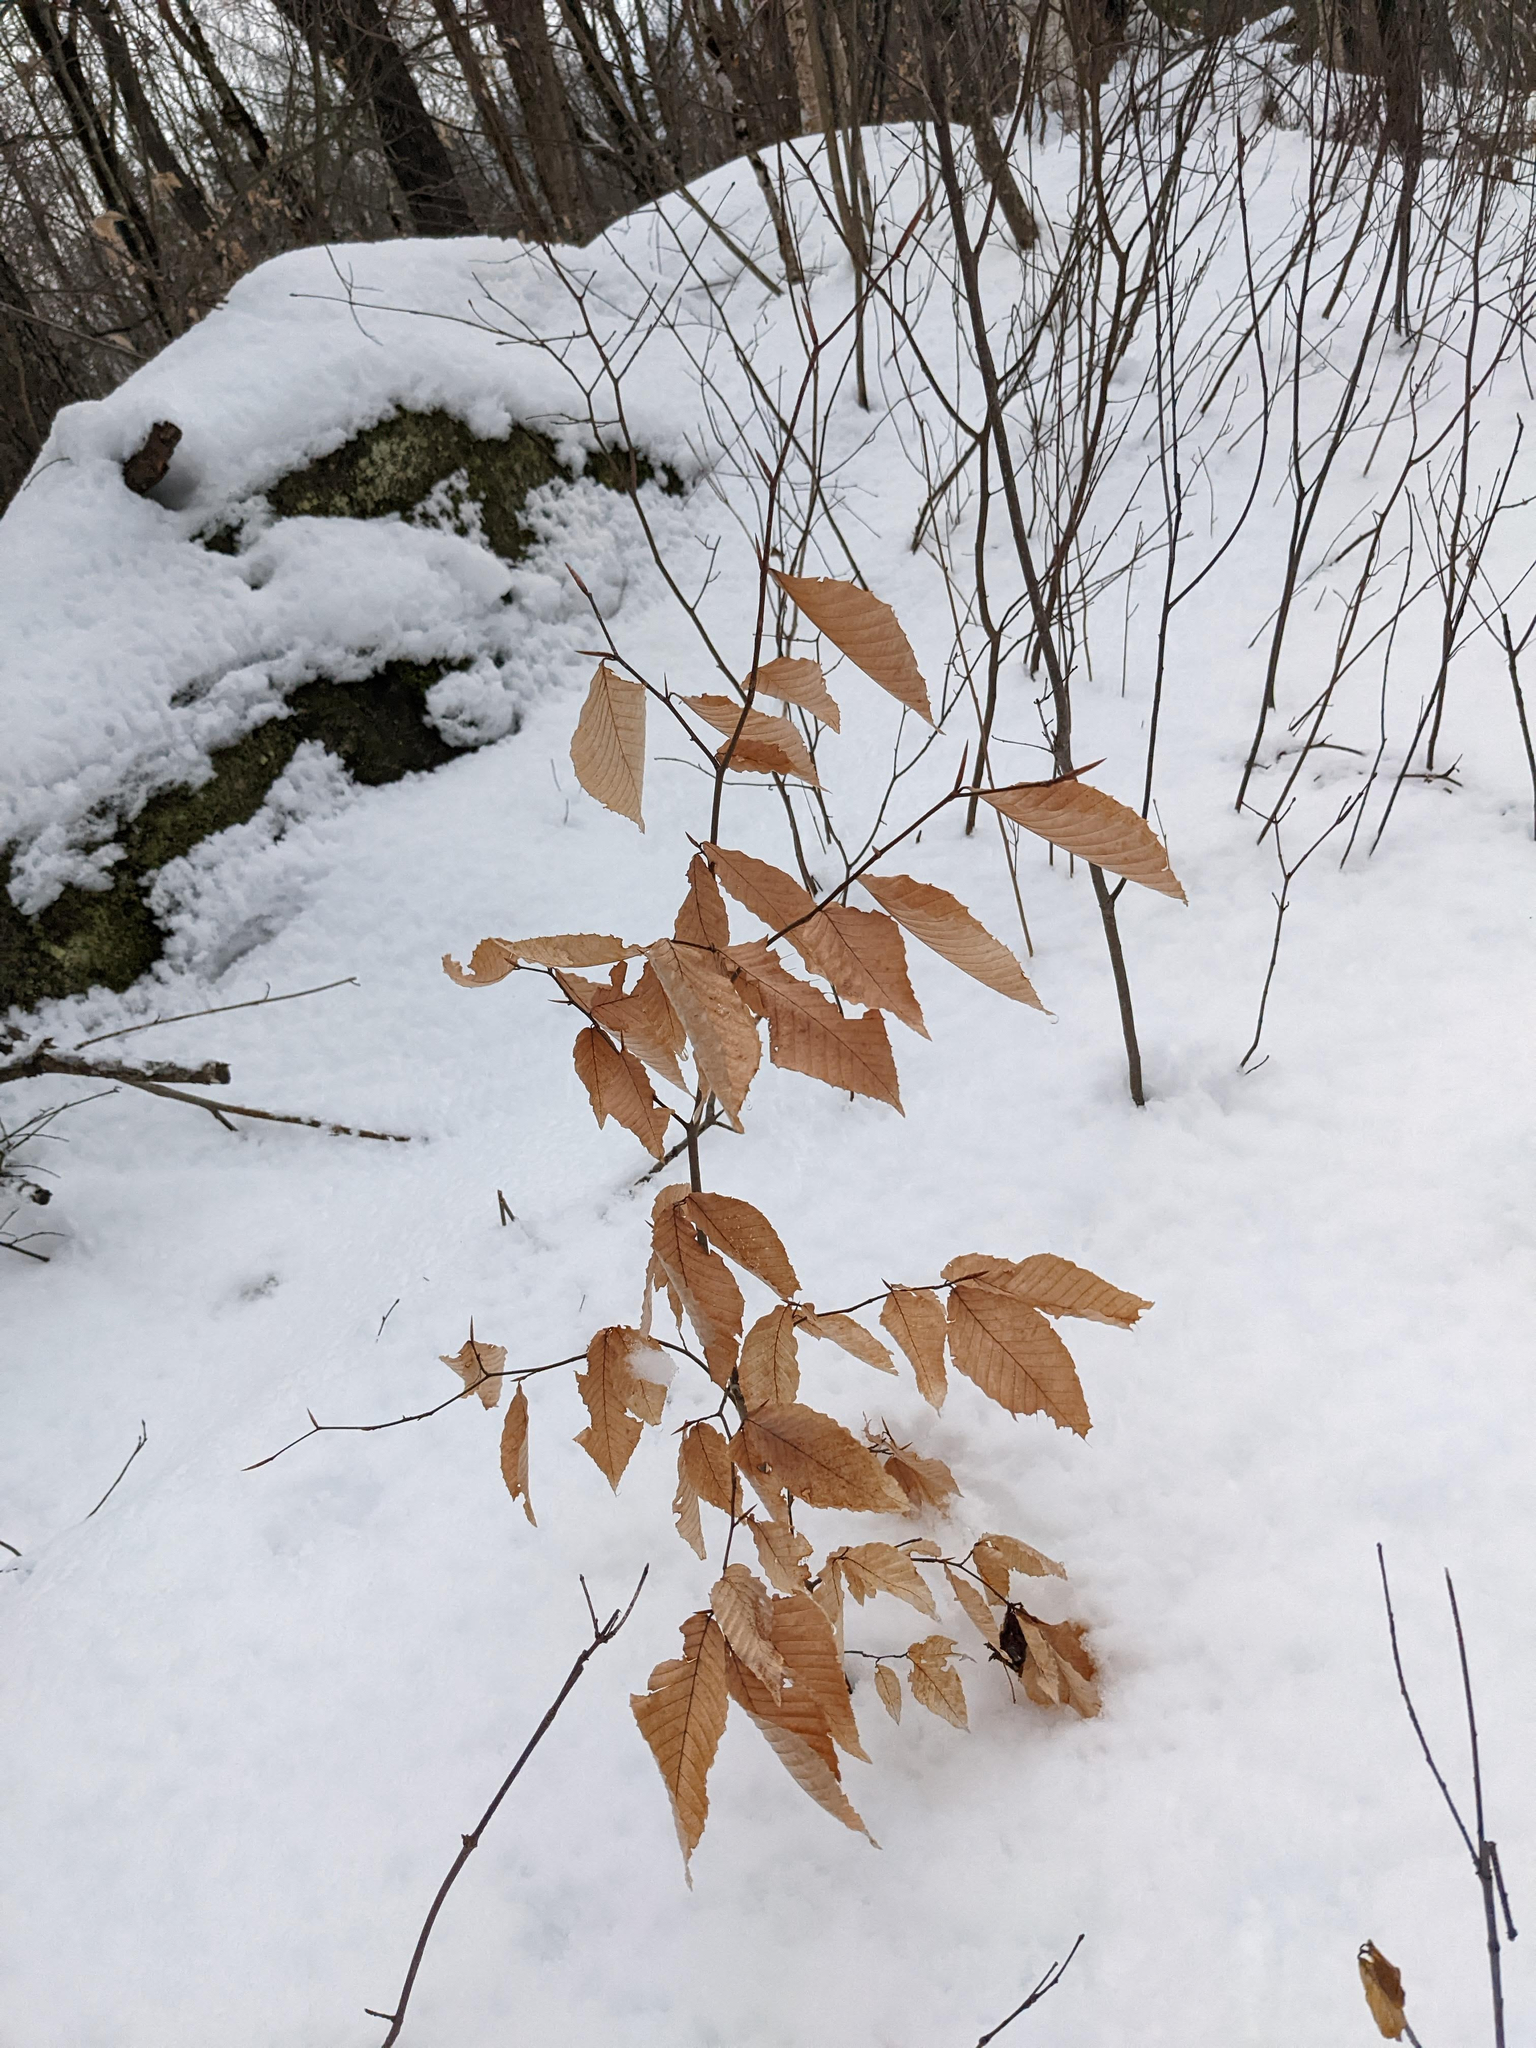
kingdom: Plantae
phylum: Tracheophyta
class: Magnoliopsida
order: Fagales
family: Fagaceae
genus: Fagus
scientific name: Fagus grandifolia
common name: American beech
